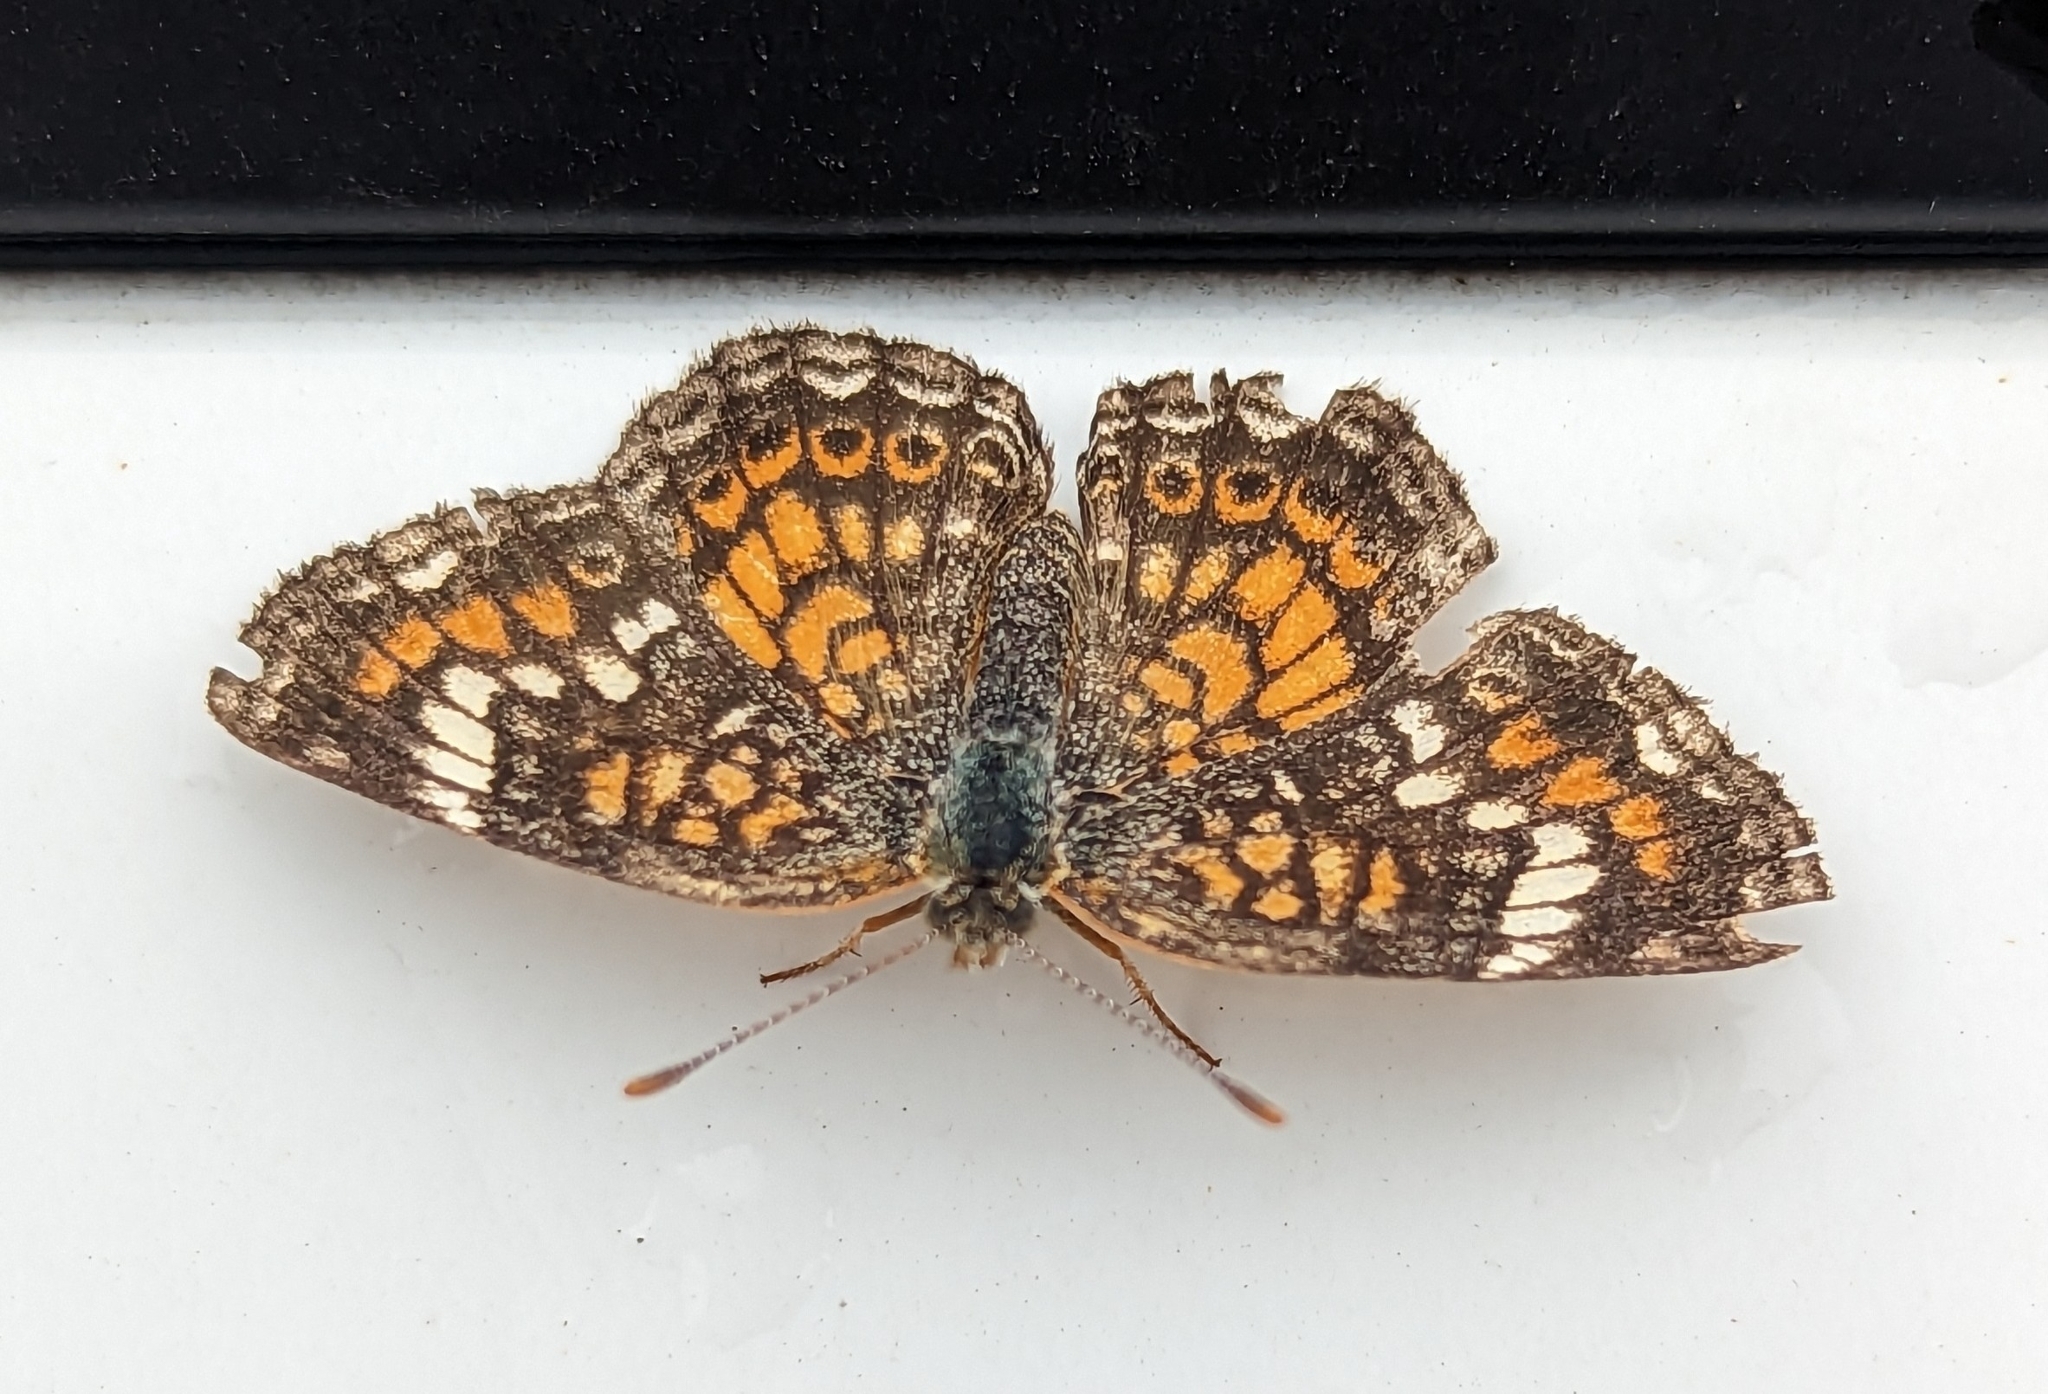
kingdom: Animalia
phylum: Arthropoda
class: Insecta
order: Lepidoptera
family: Nymphalidae
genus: Phyciodes
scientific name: Phyciodes phaon
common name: Phaon crescent
